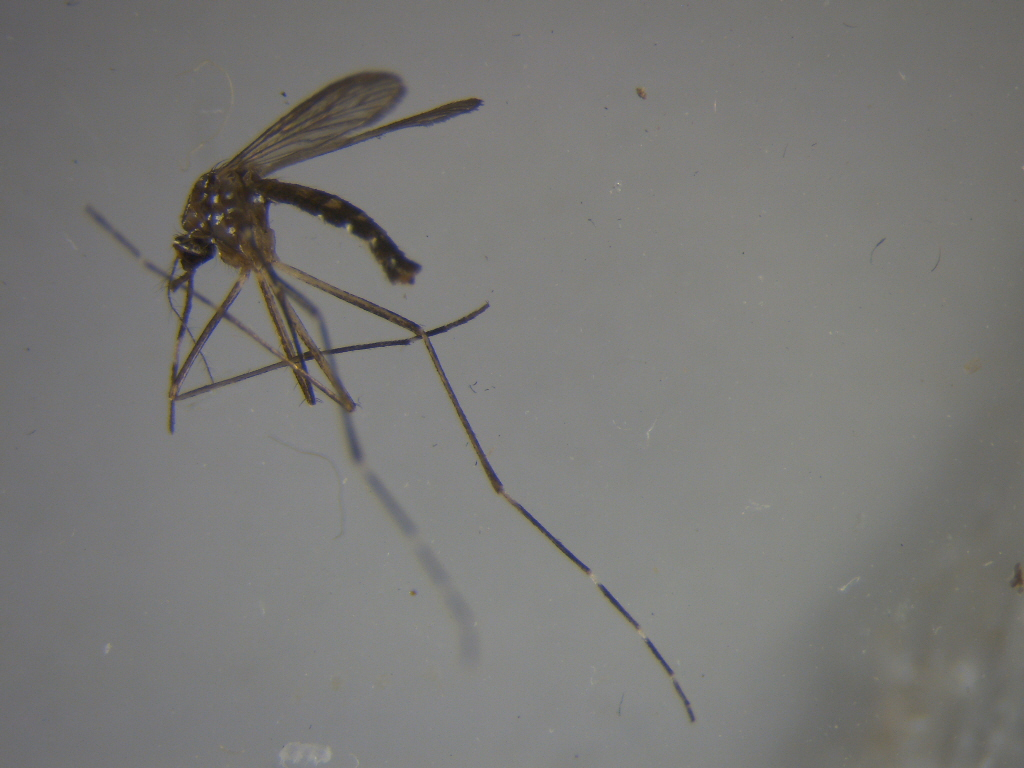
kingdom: Animalia
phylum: Arthropoda
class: Insecta
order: Diptera
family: Culicidae
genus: Aedes
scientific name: Aedes notoscriptus
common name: Australian backyard mosquito
